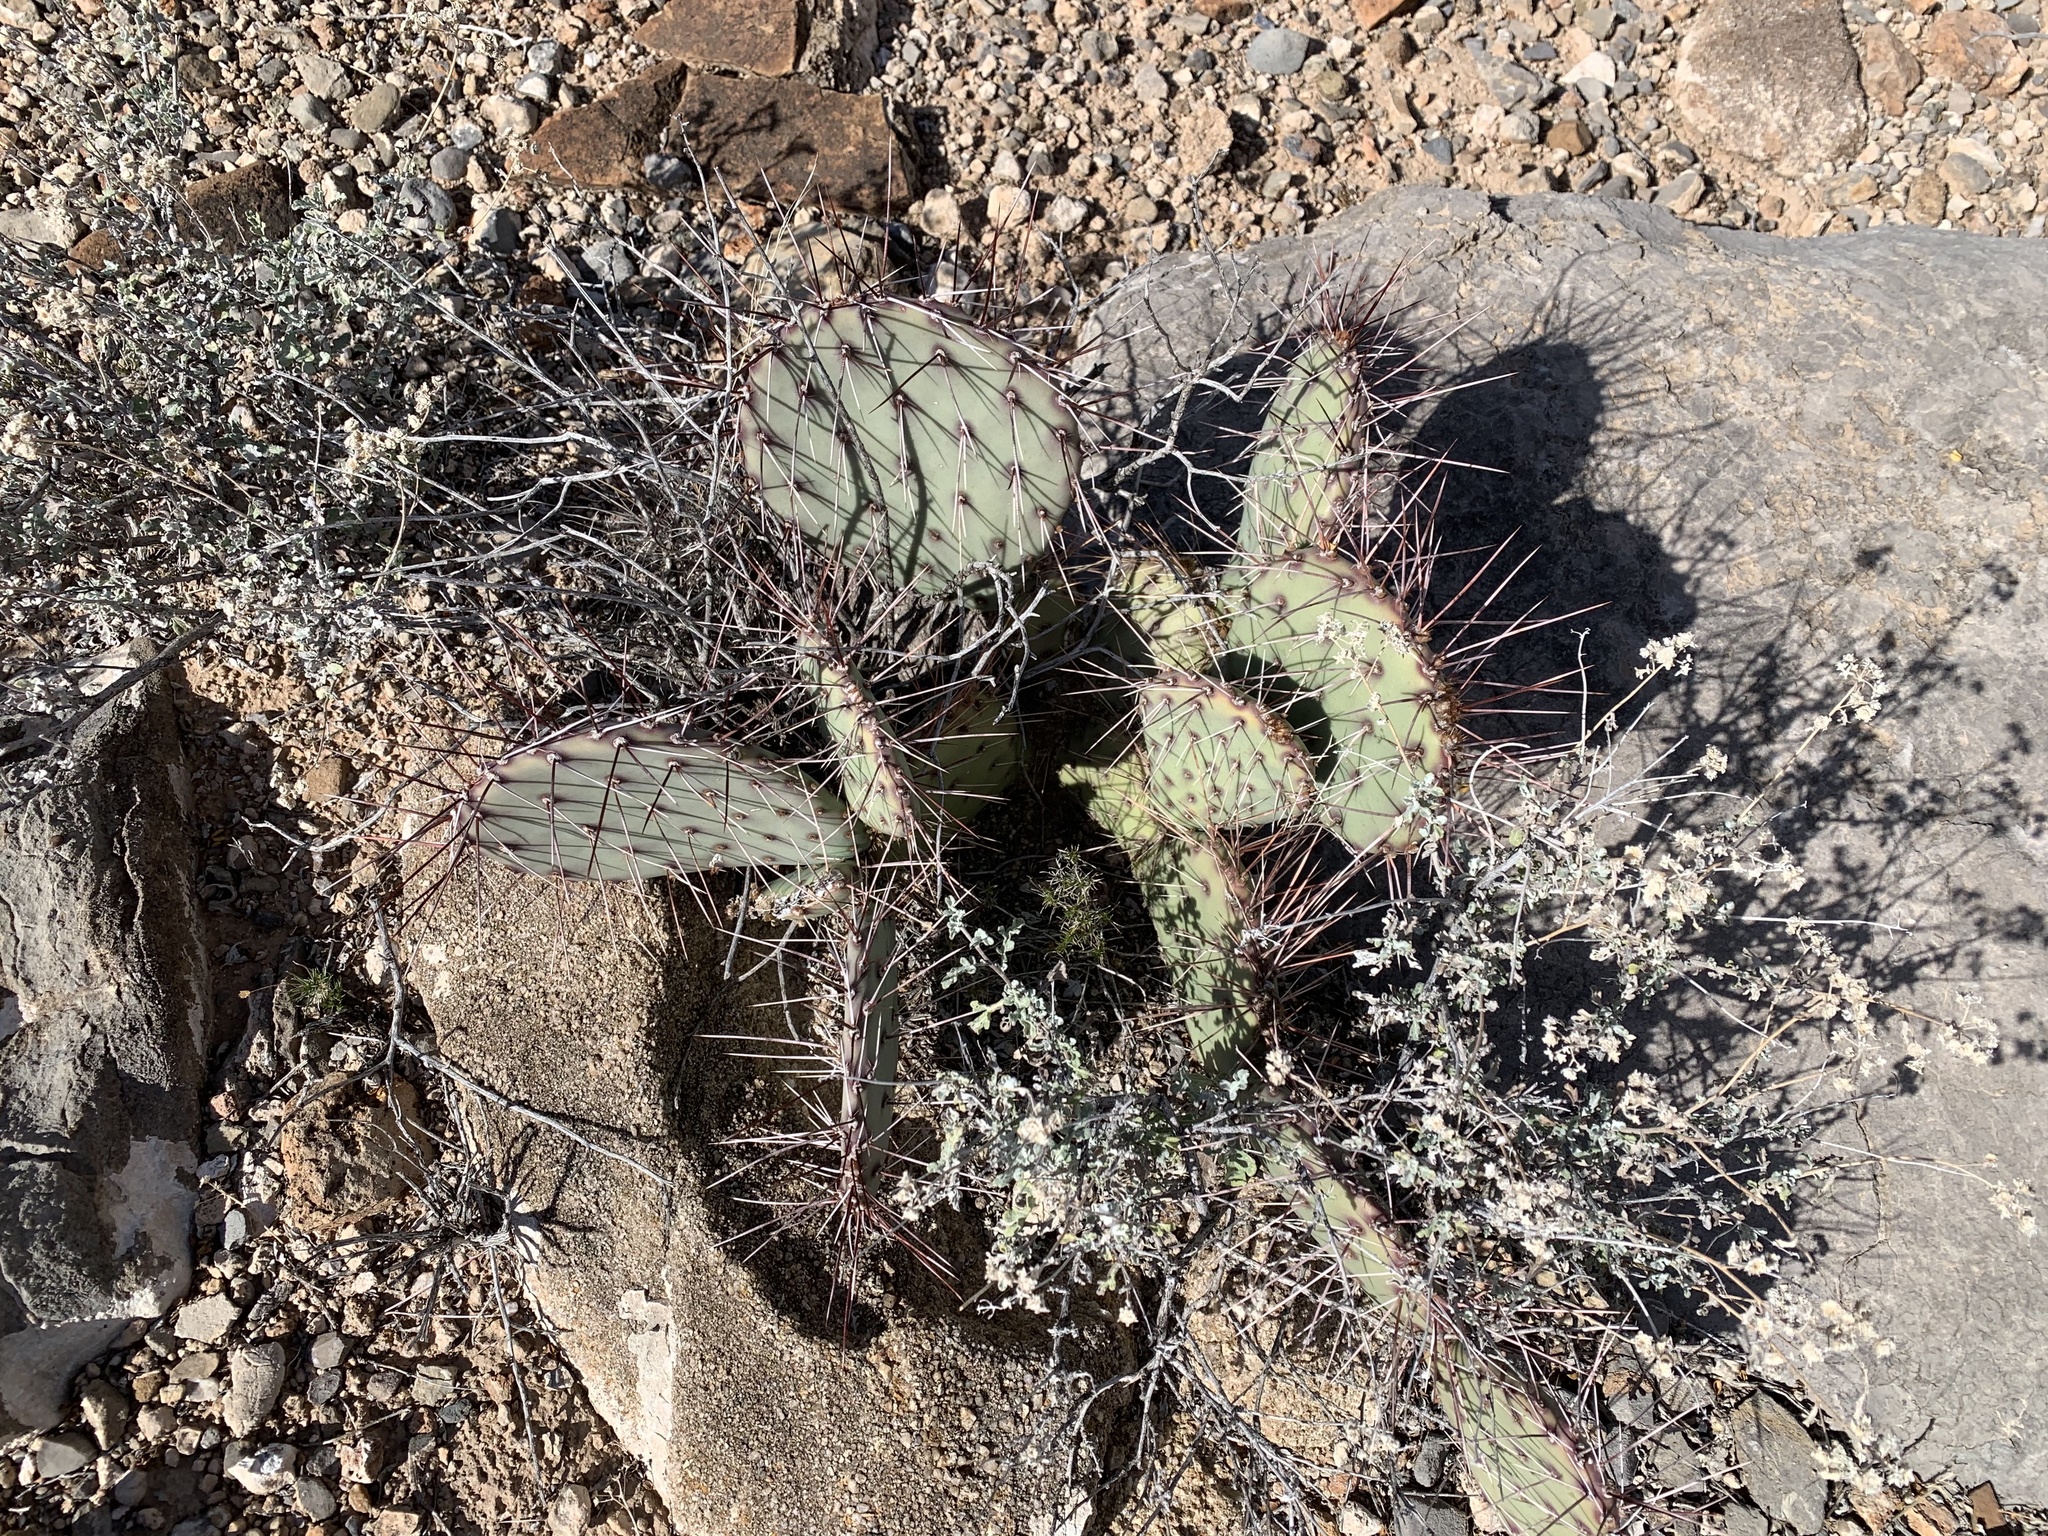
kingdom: Plantae
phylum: Tracheophyta
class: Magnoliopsida
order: Caryophyllales
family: Cactaceae
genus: Opuntia
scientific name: Opuntia macrocentra
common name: Purple prickly-pear
